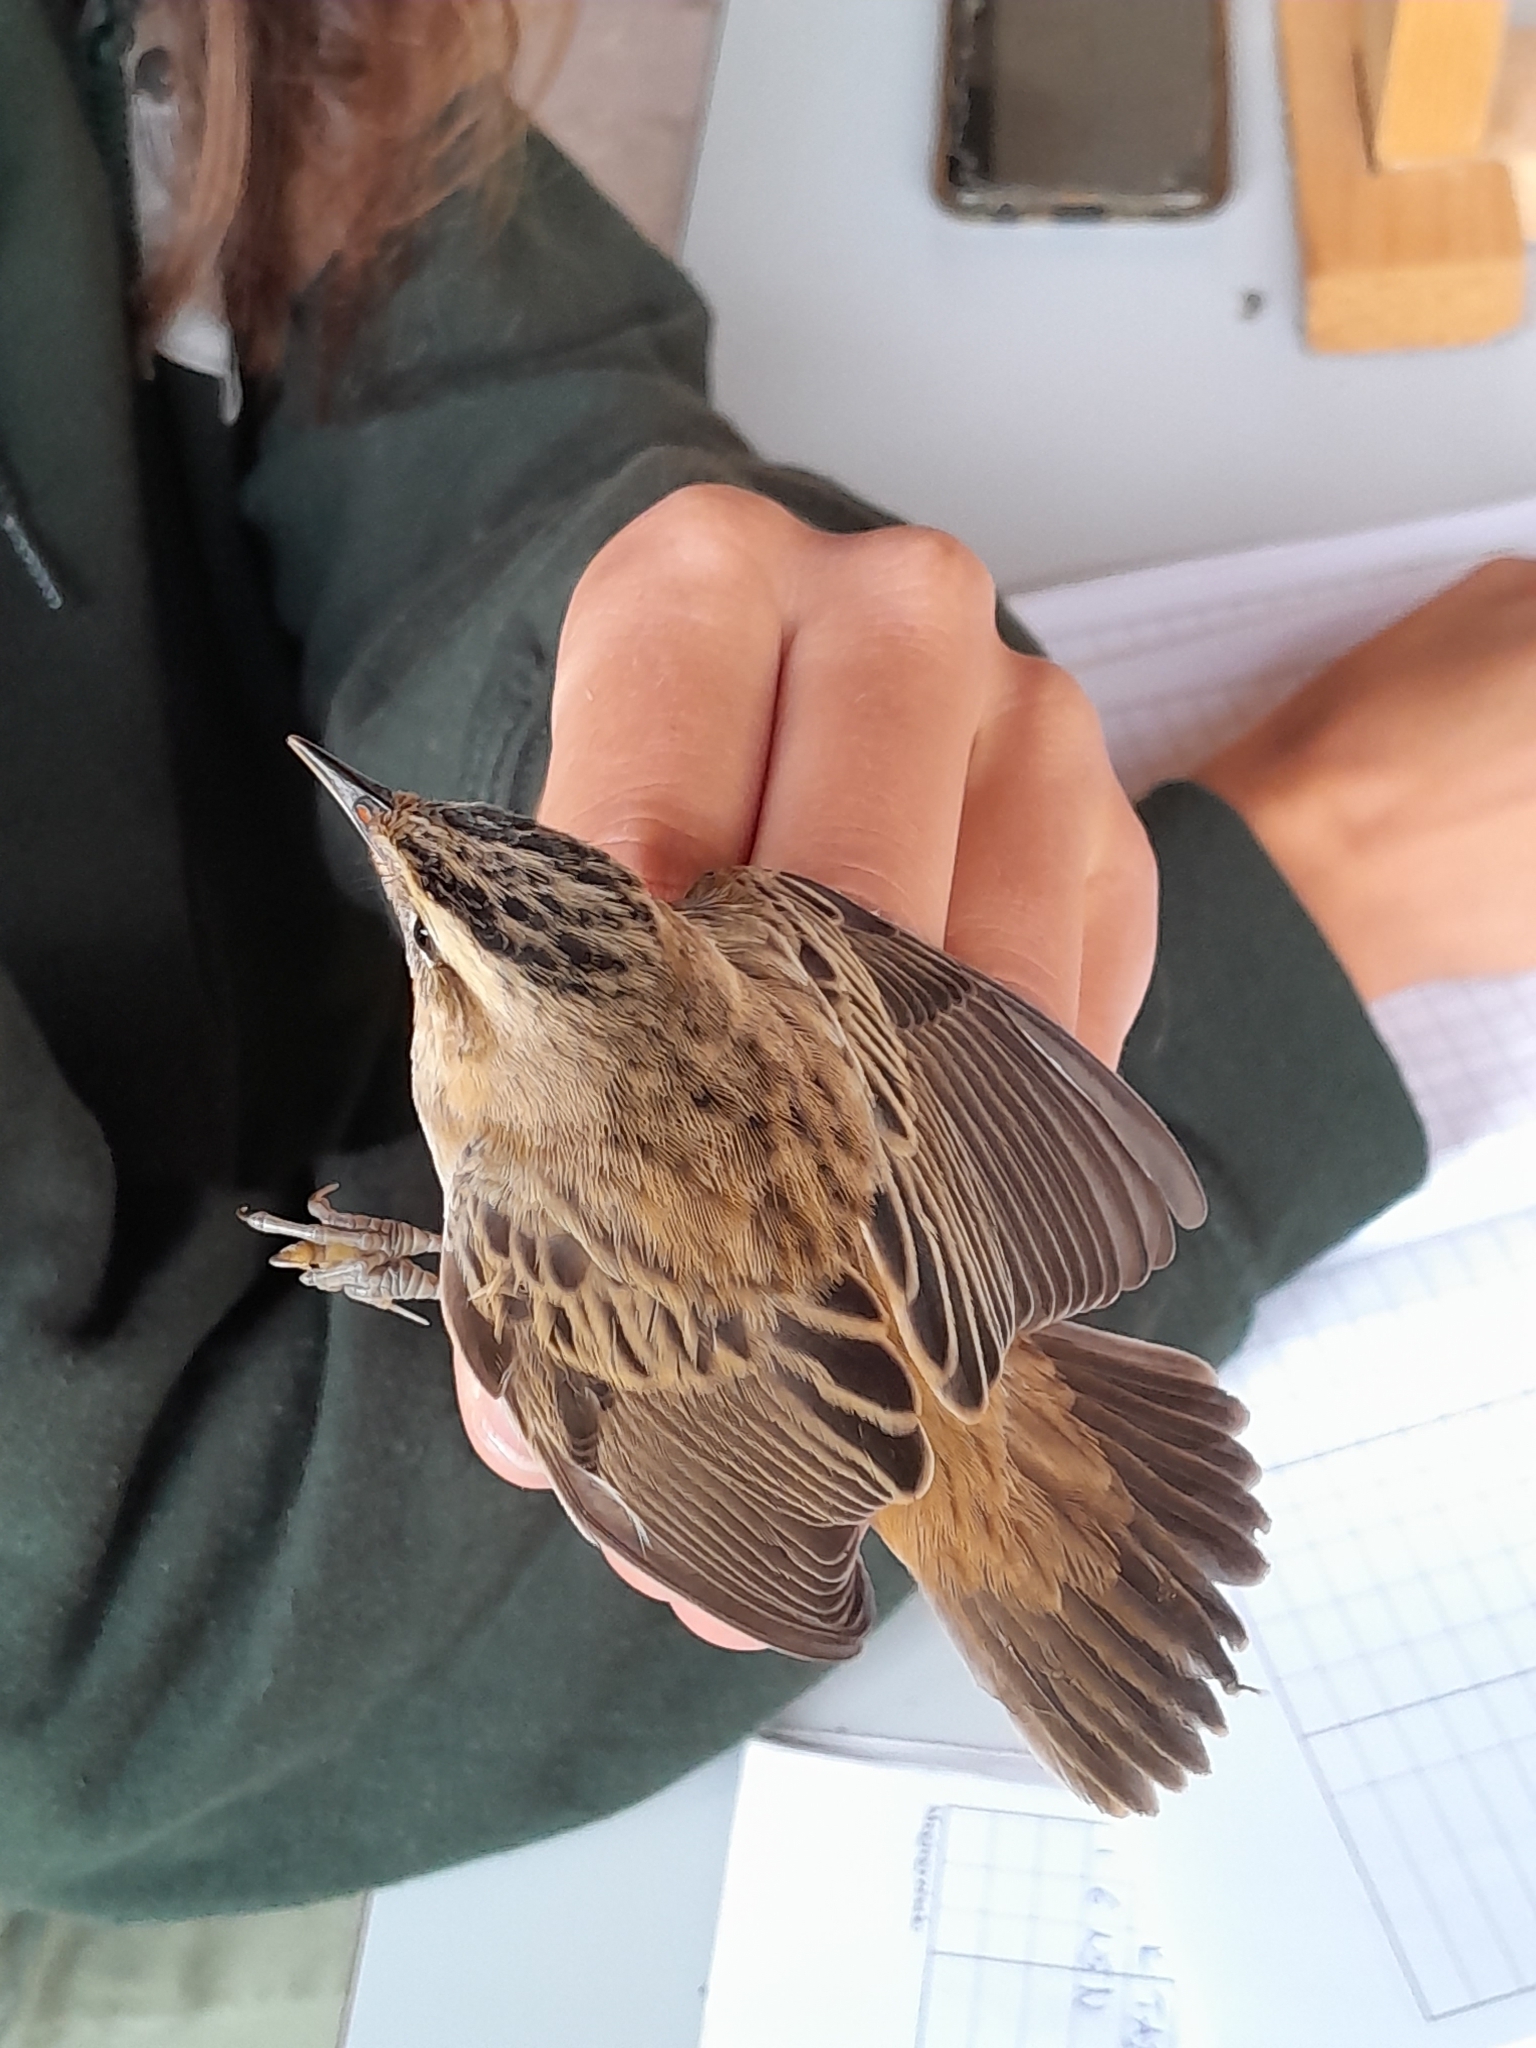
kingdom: Animalia
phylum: Chordata
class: Aves
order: Passeriformes
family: Acrocephalidae
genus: Acrocephalus
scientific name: Acrocephalus schoenobaenus
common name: Sedge warbler
